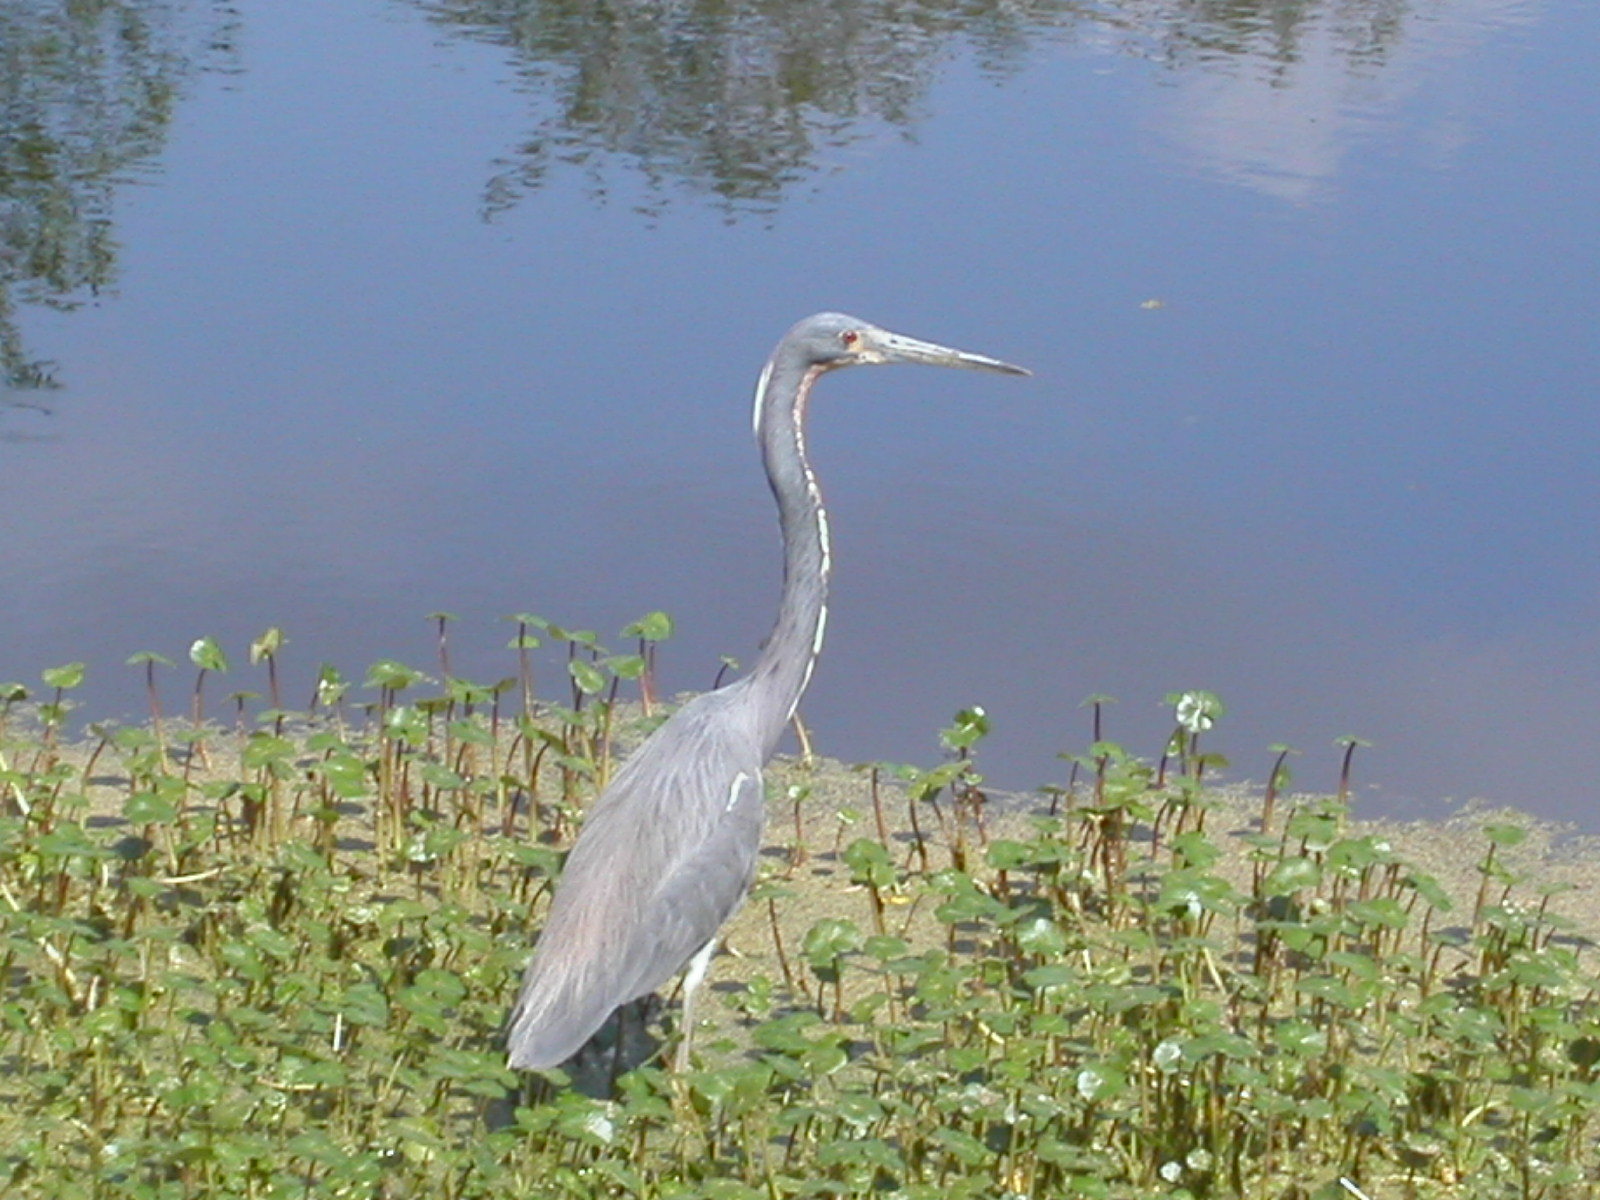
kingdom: Animalia
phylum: Chordata
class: Aves
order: Pelecaniformes
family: Ardeidae
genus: Egretta
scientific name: Egretta tricolor
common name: Tricolored heron
